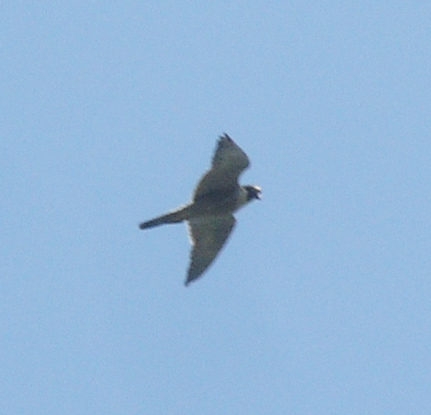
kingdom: Animalia
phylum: Chordata
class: Aves
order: Falconiformes
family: Falconidae
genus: Falco
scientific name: Falco peregrinus
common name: Peregrine falcon
